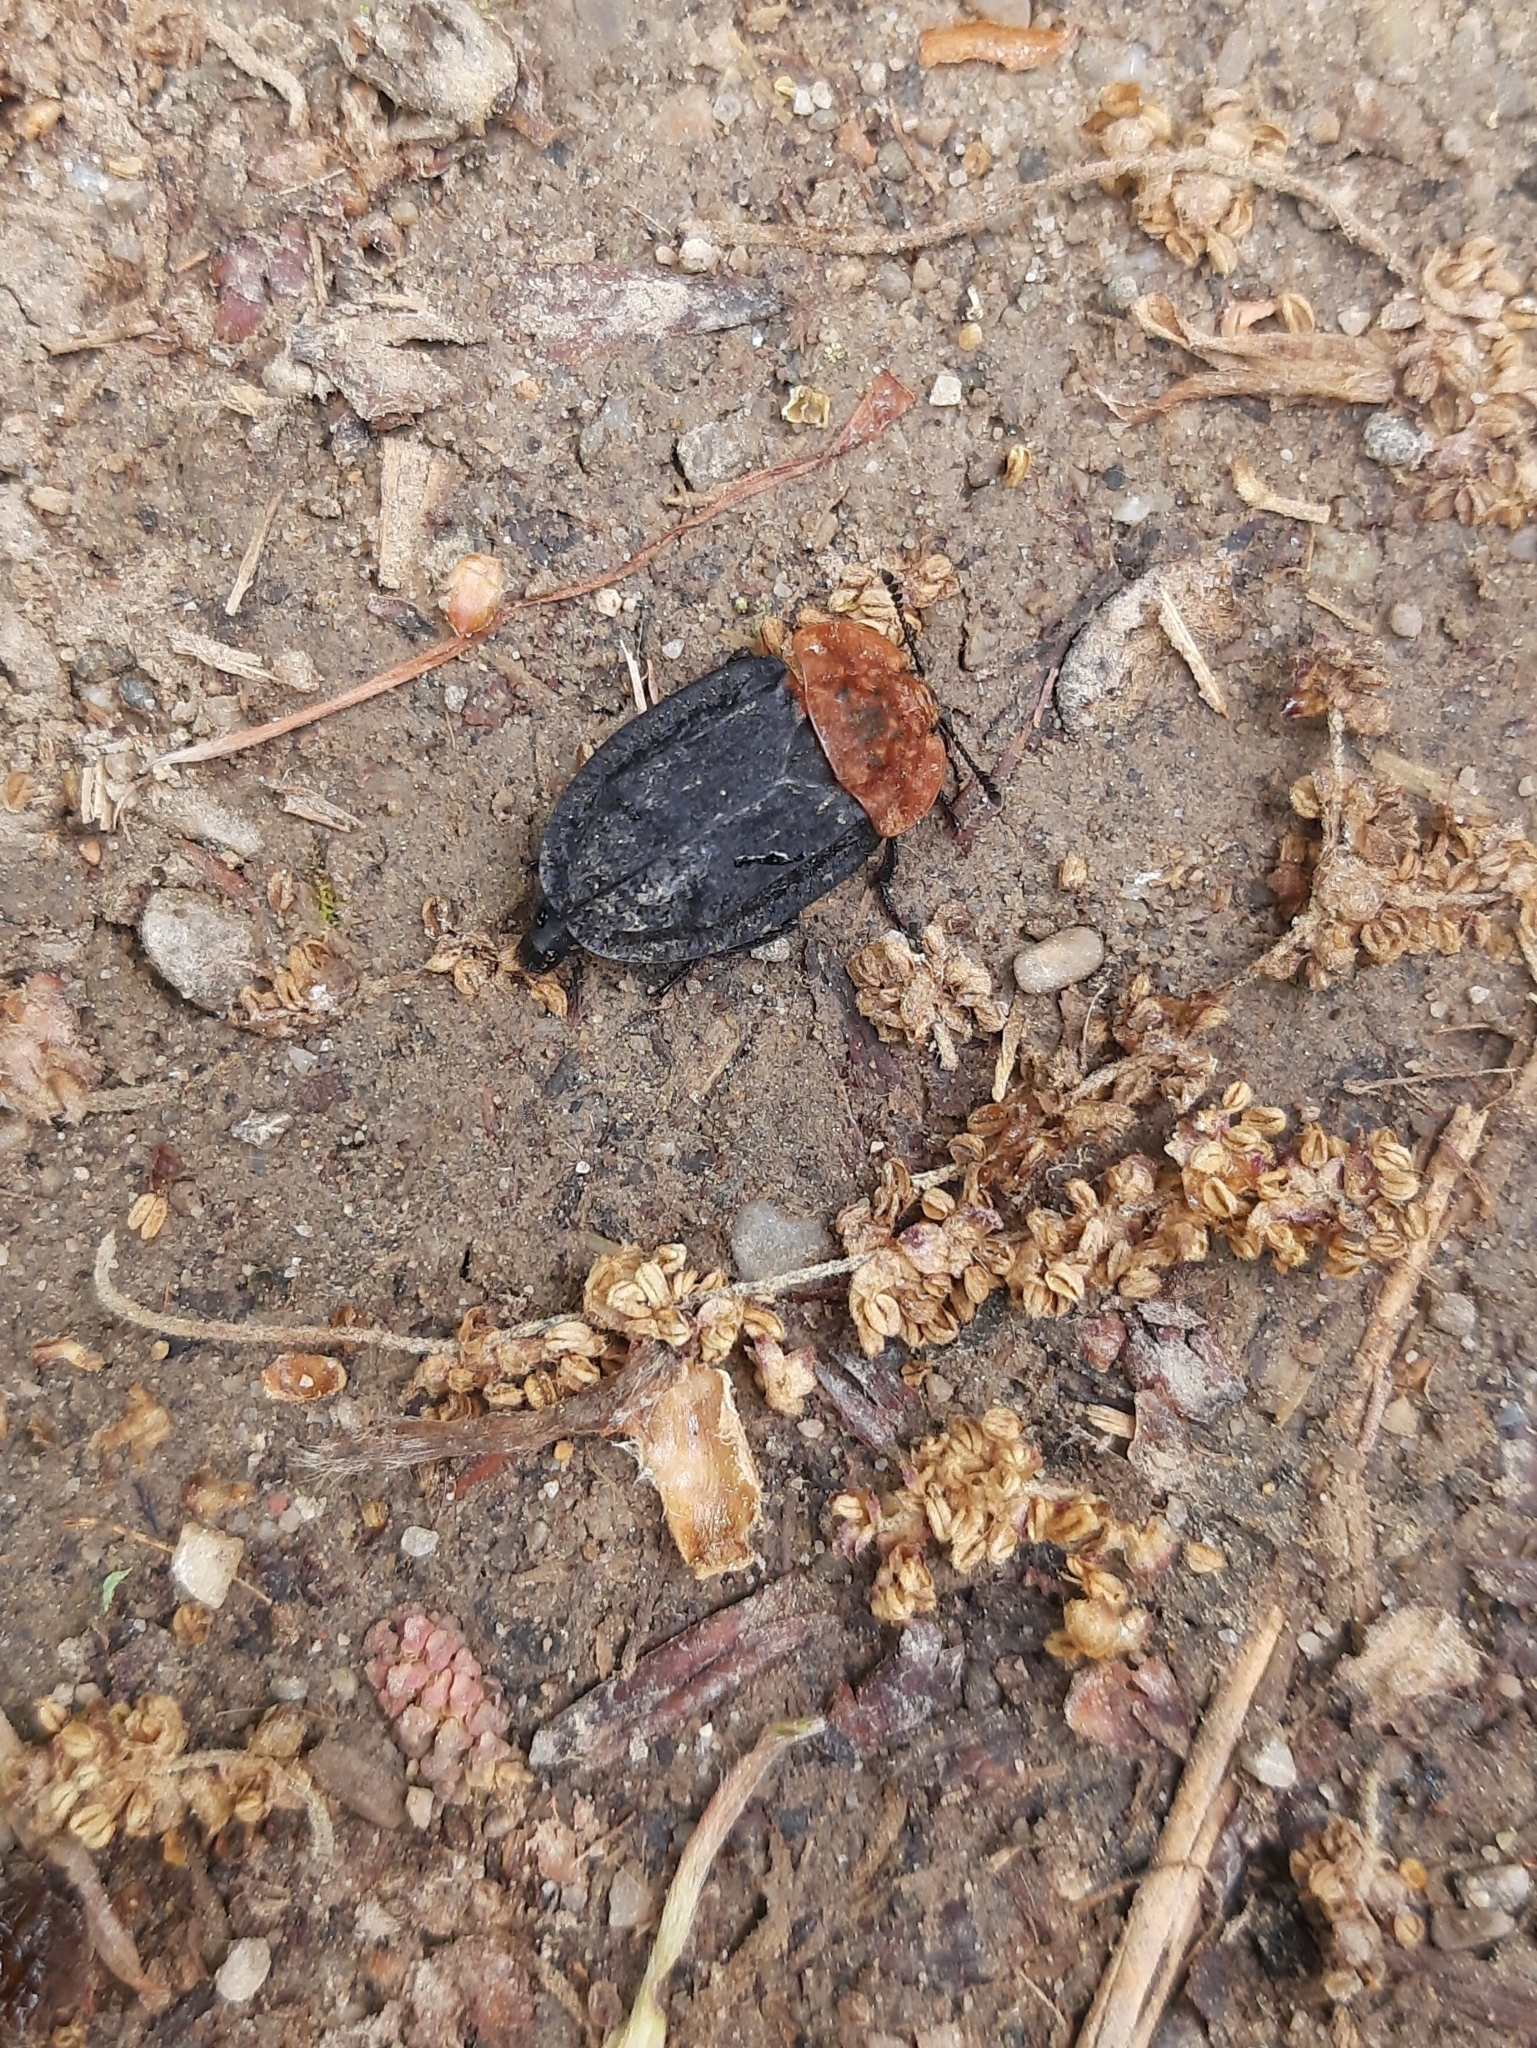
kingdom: Animalia
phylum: Arthropoda
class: Insecta
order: Coleoptera
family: Staphylinidae
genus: Oiceoptoma
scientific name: Oiceoptoma thoracicum
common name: Red-breasted carrion beetle
